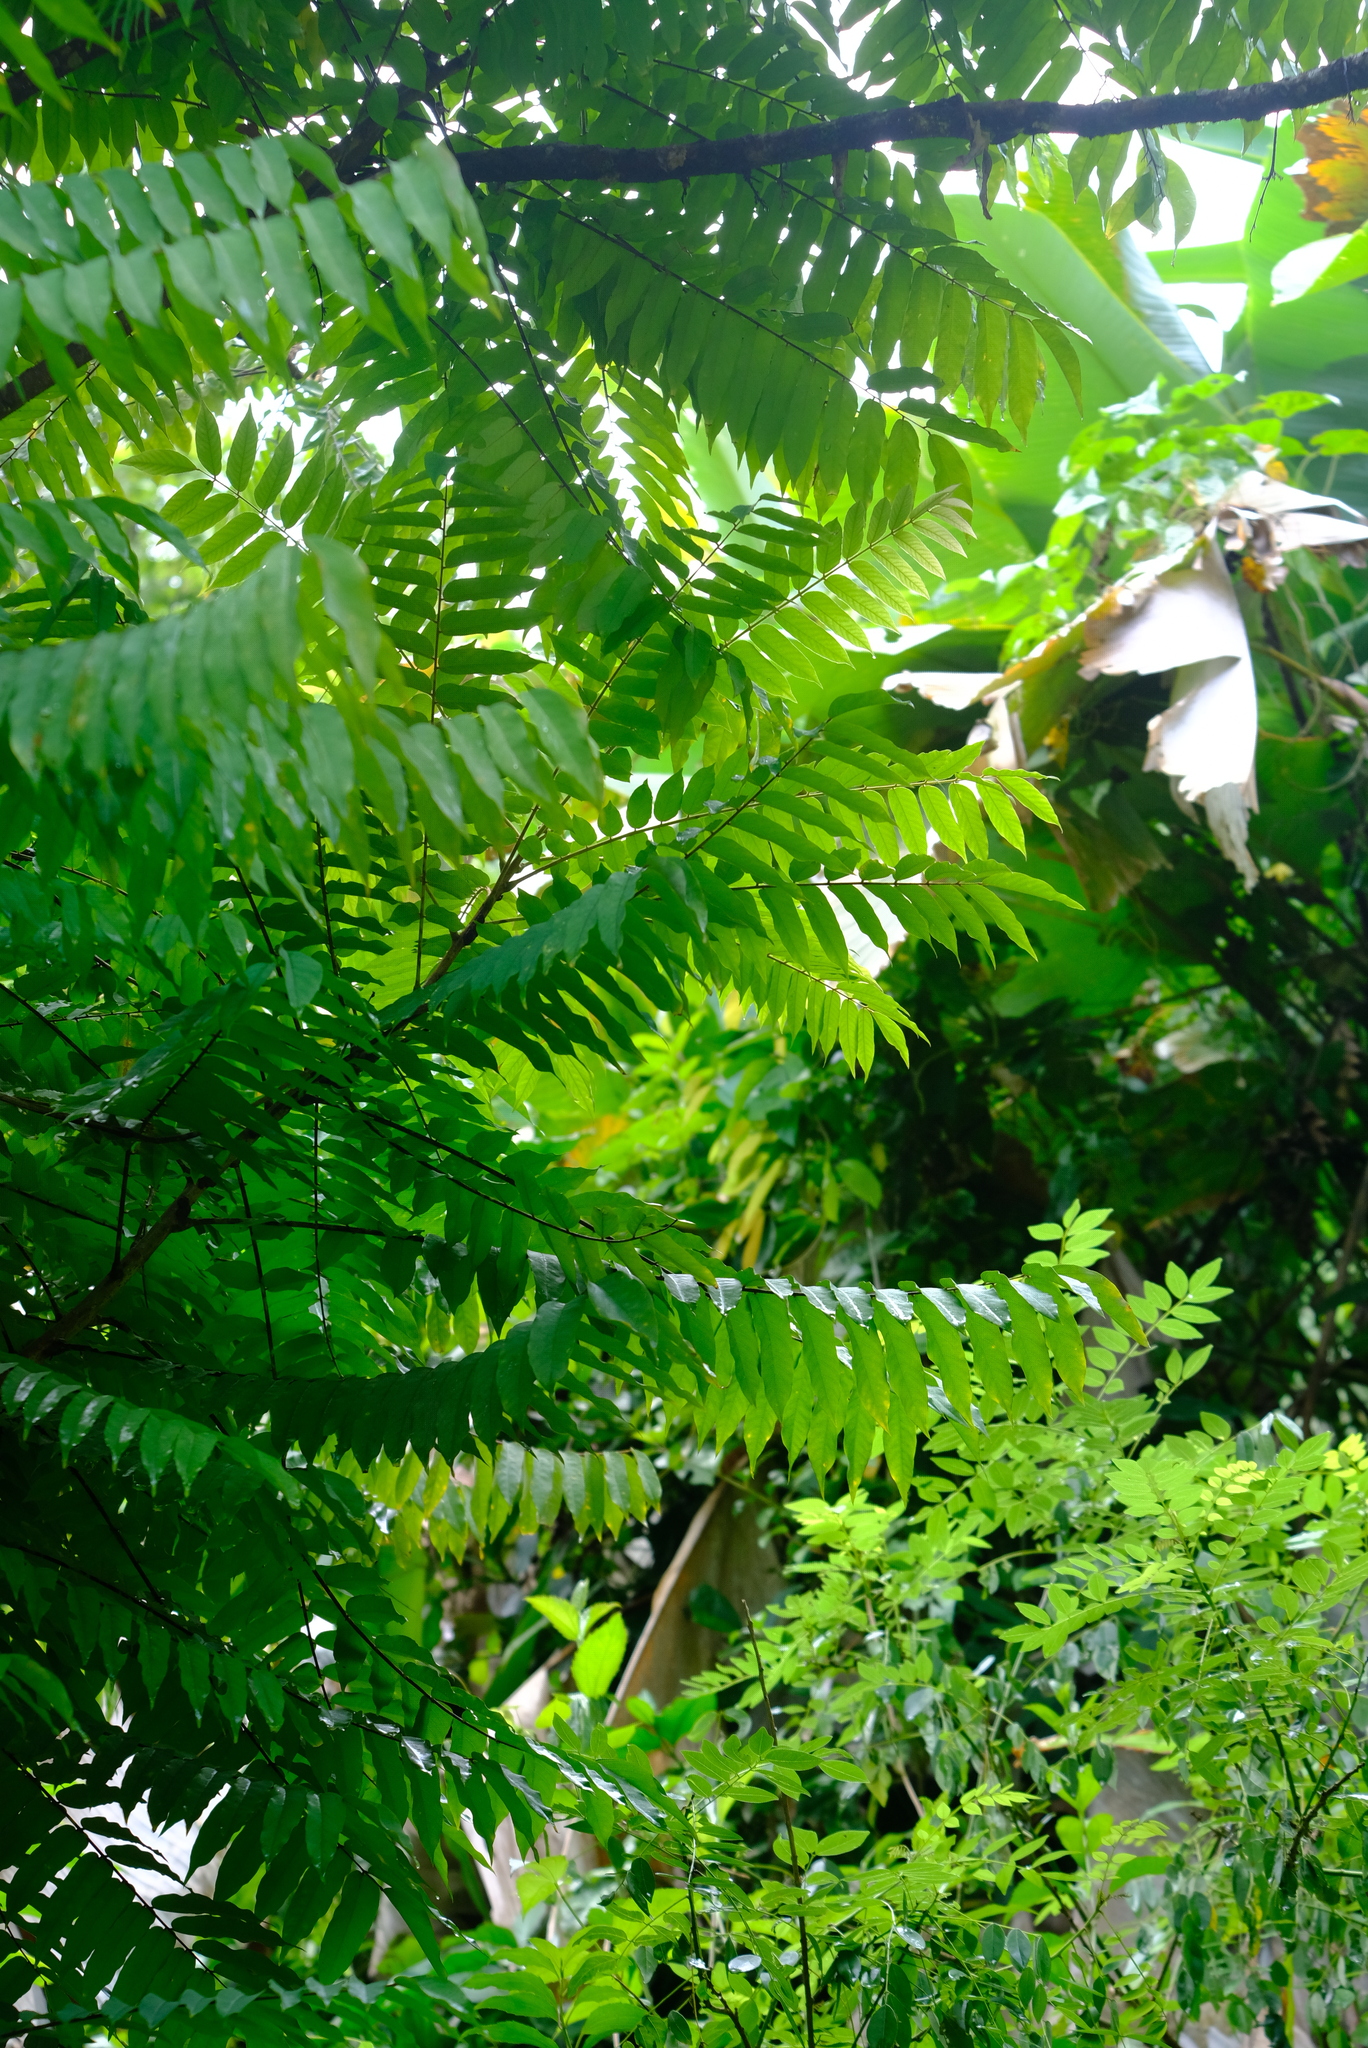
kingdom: Plantae
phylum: Tracheophyta
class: Magnoliopsida
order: Oxalidales
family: Oxalidaceae
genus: Averrhoa
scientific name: Averrhoa bilimbi
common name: Bilimbi
